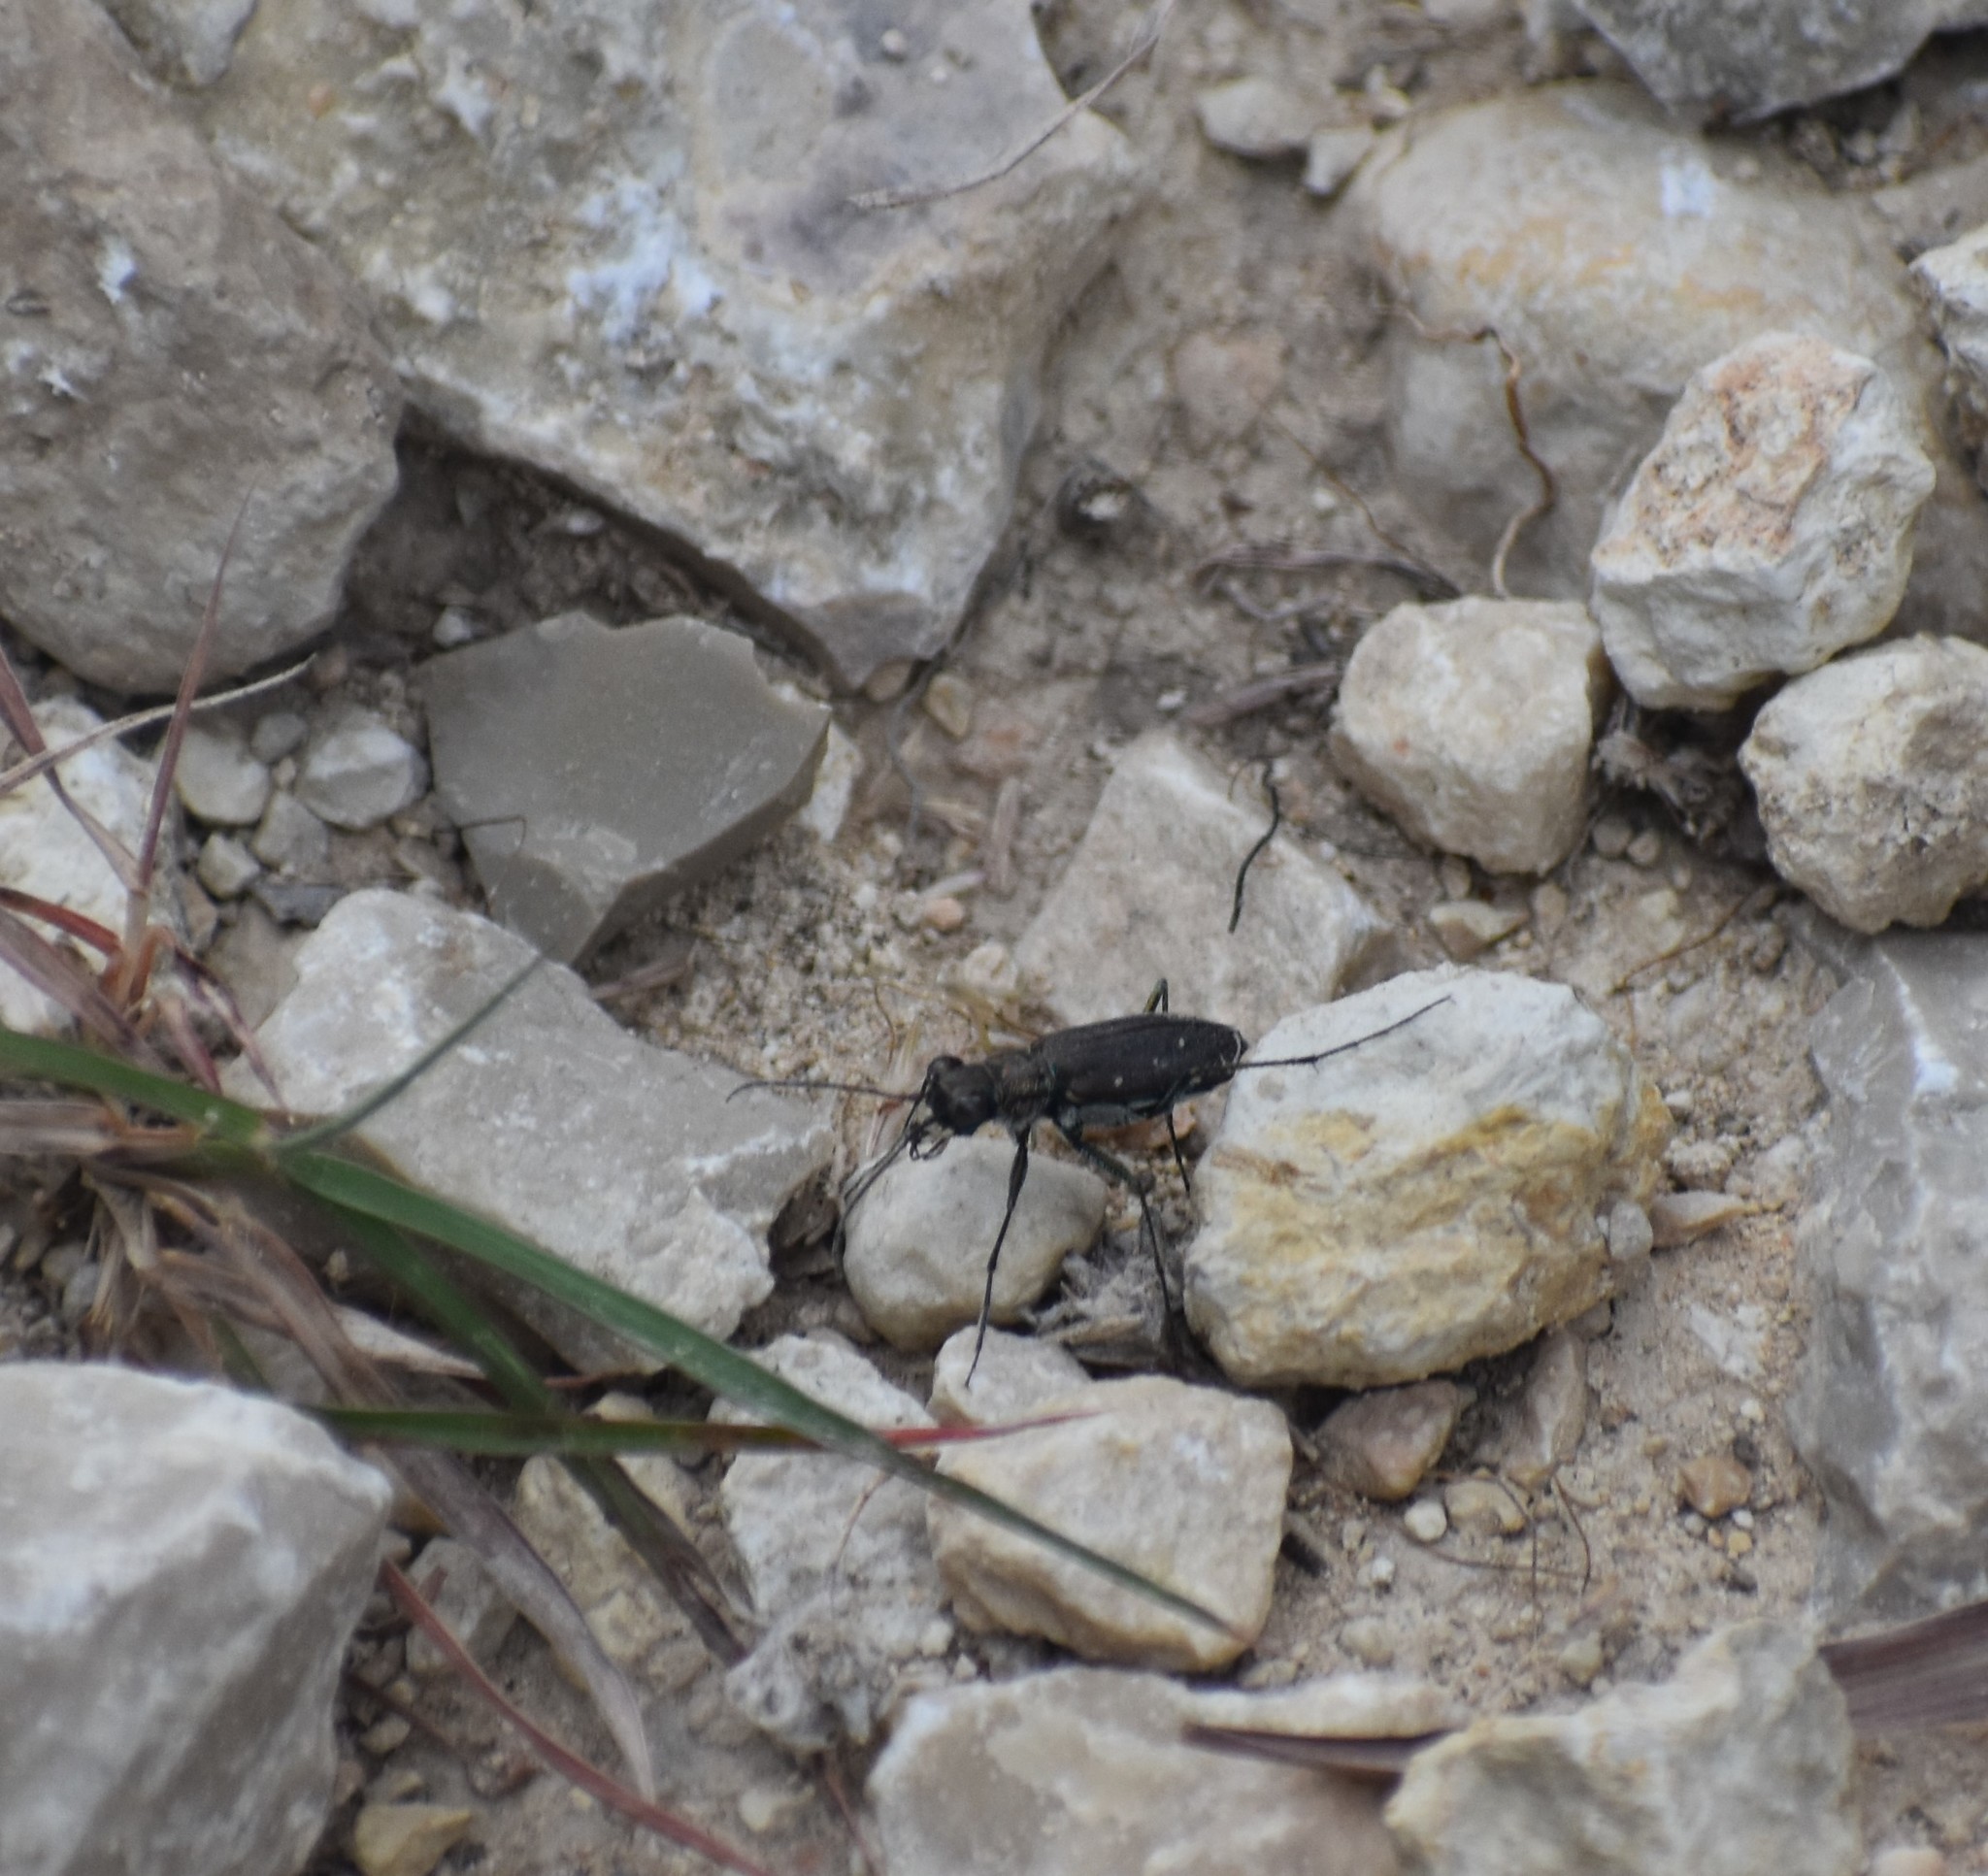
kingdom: Animalia
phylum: Arthropoda
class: Insecta
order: Coleoptera
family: Carabidae
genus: Cicindela
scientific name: Cicindela punctulata
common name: Punctured tiger beetle
